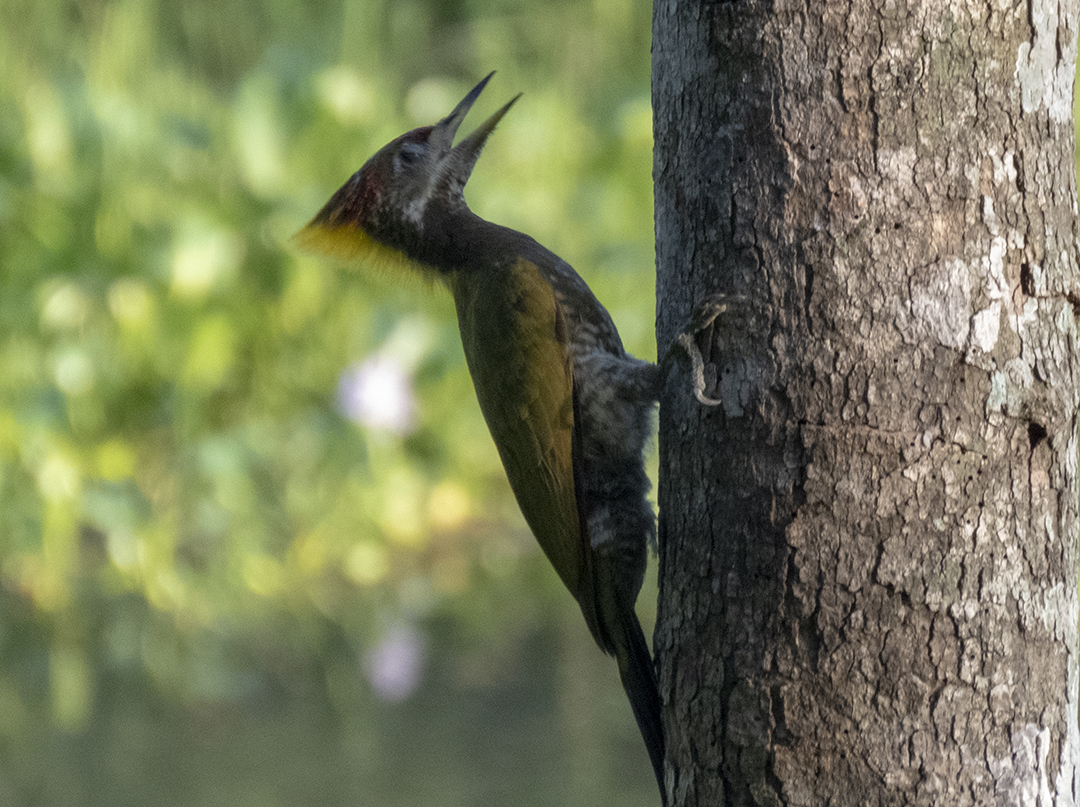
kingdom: Animalia
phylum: Chordata
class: Aves
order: Piciformes
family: Picidae
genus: Picus
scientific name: Picus chlorolophus
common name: Lesser yellownape
